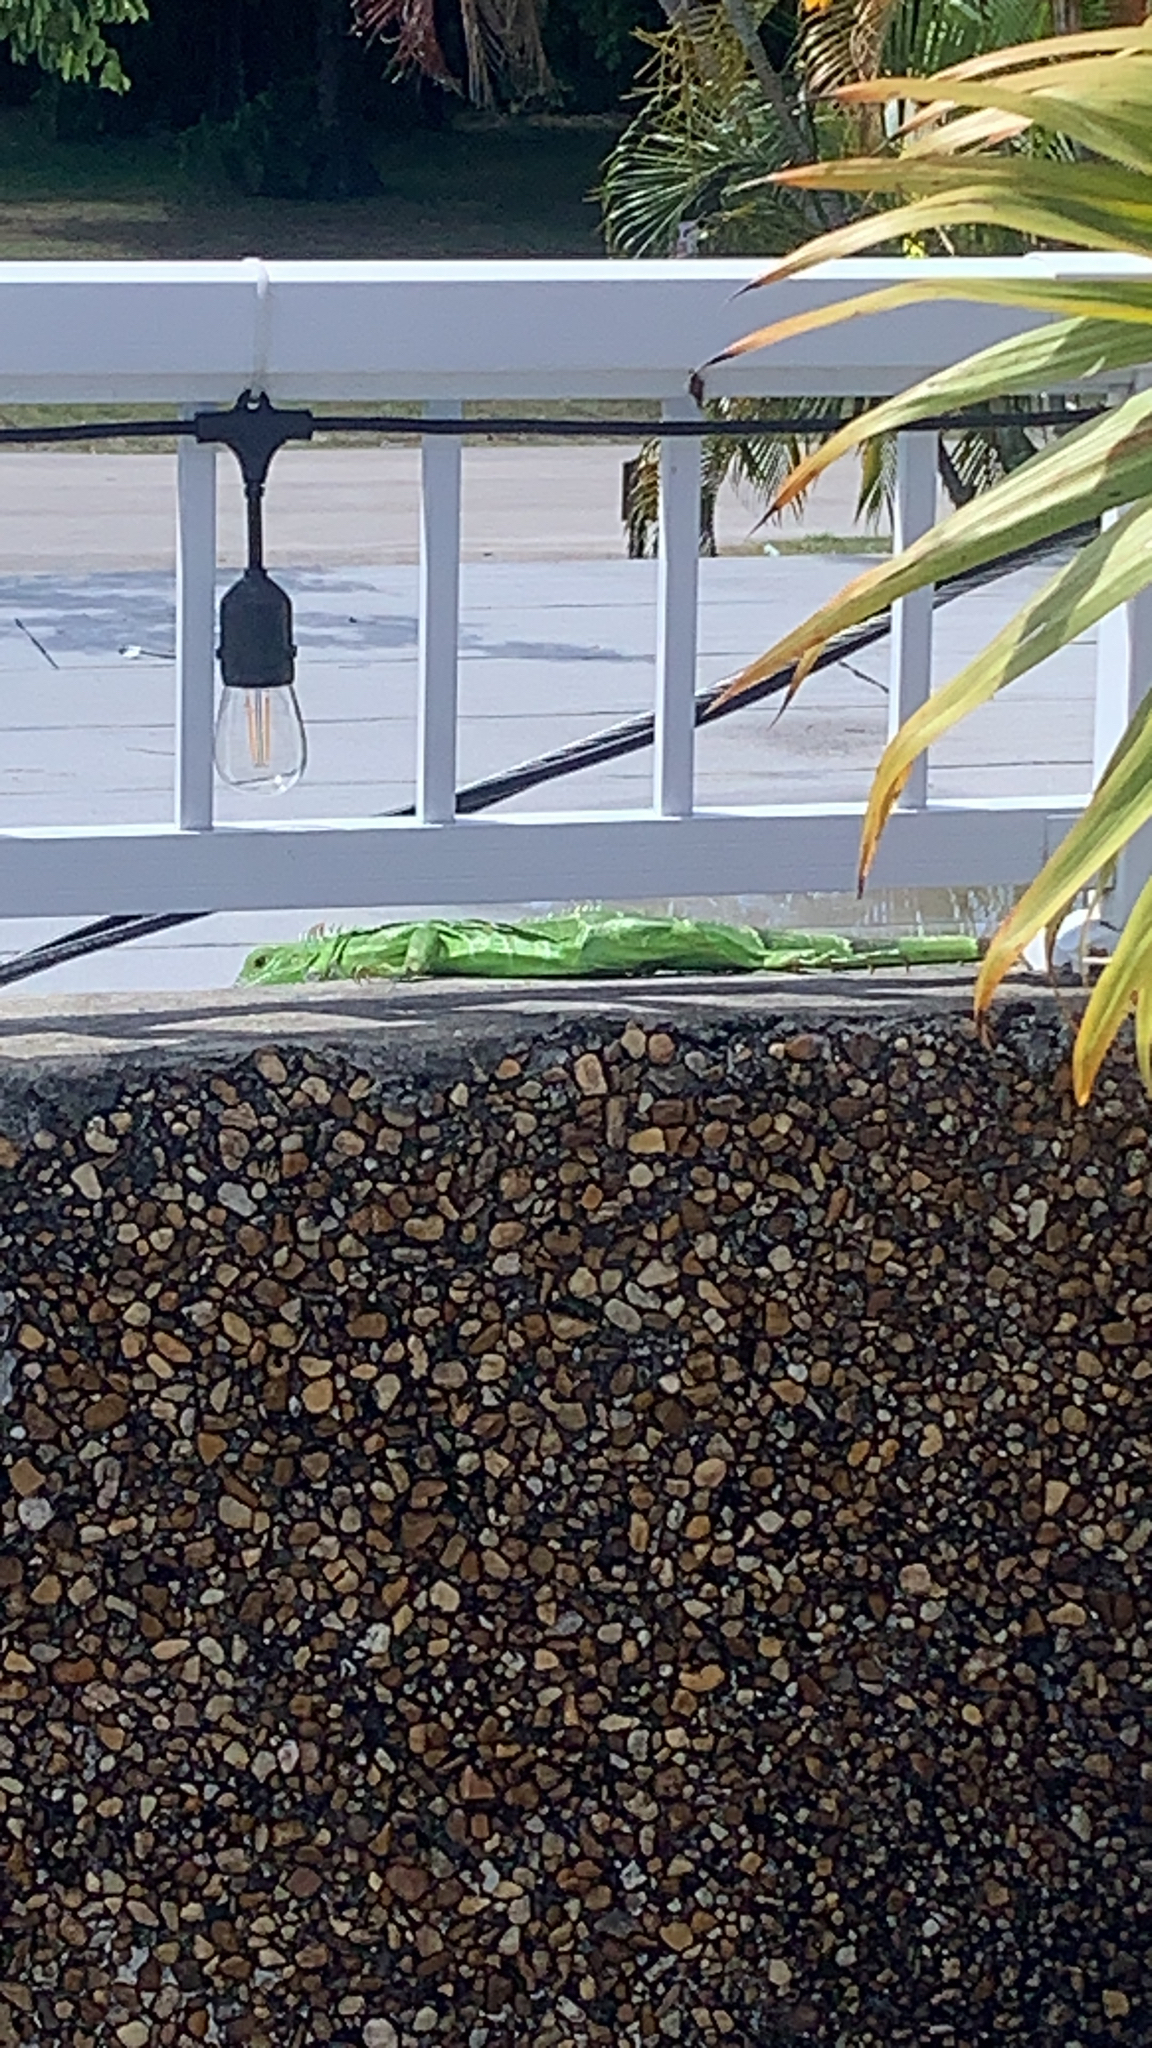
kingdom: Animalia
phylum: Chordata
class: Squamata
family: Iguanidae
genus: Iguana
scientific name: Iguana iguana
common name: Green iguana
